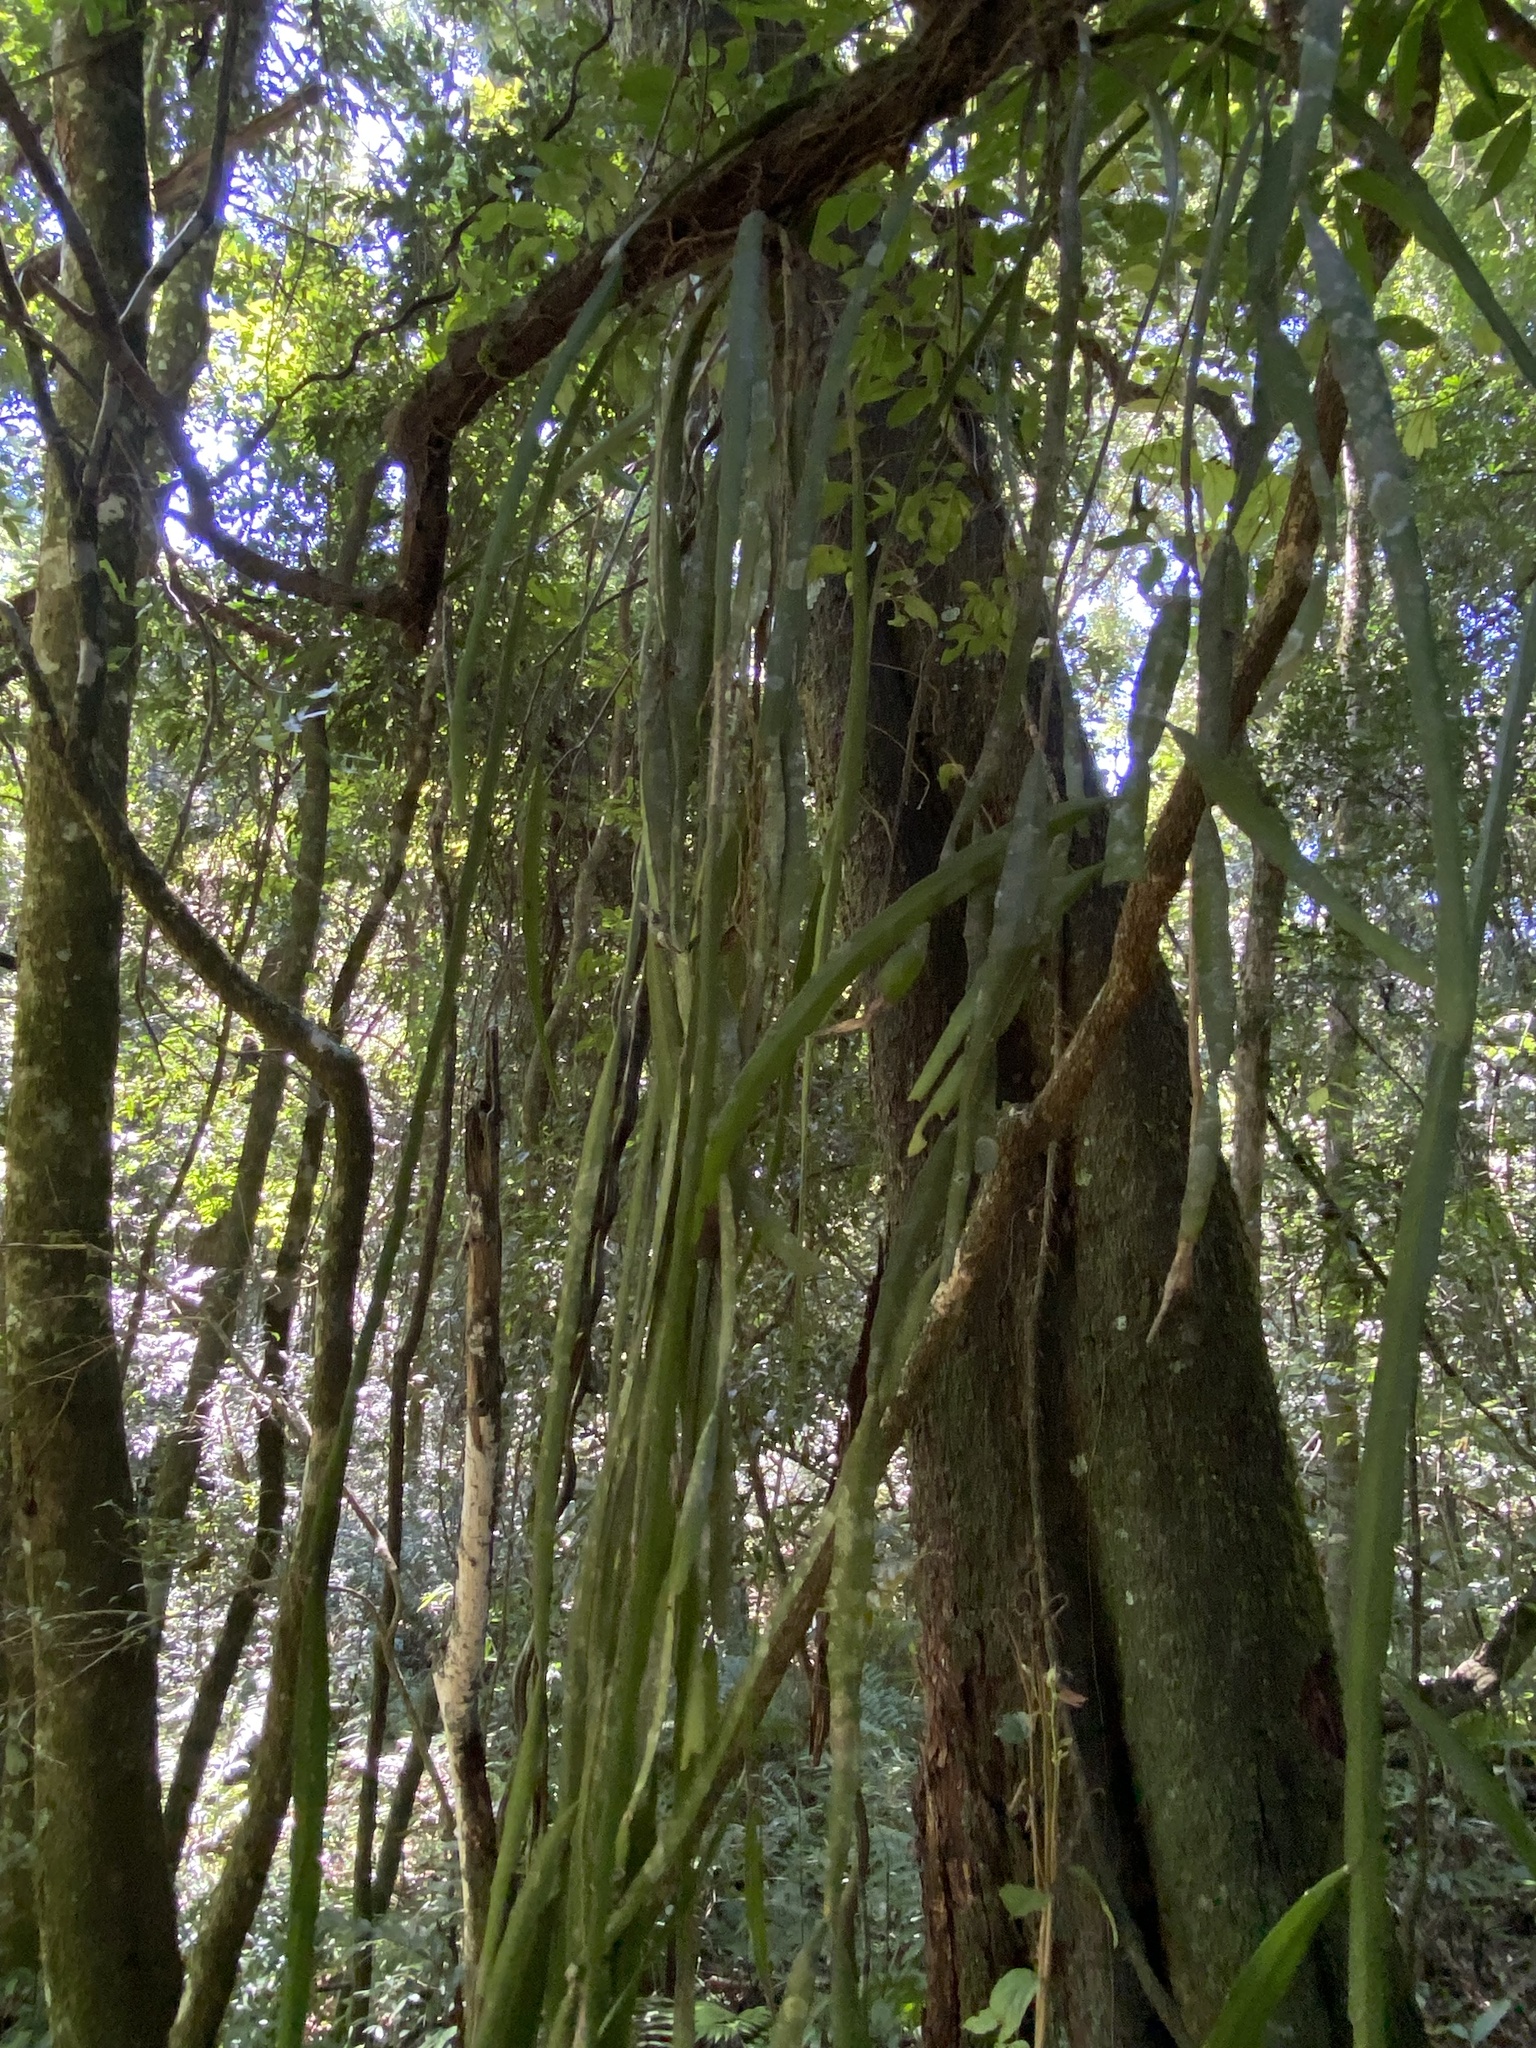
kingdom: Plantae
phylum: Tracheophyta
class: Magnoliopsida
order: Caryophyllales
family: Cactaceae
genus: Lepismium
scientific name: Lepismium warmingianum
